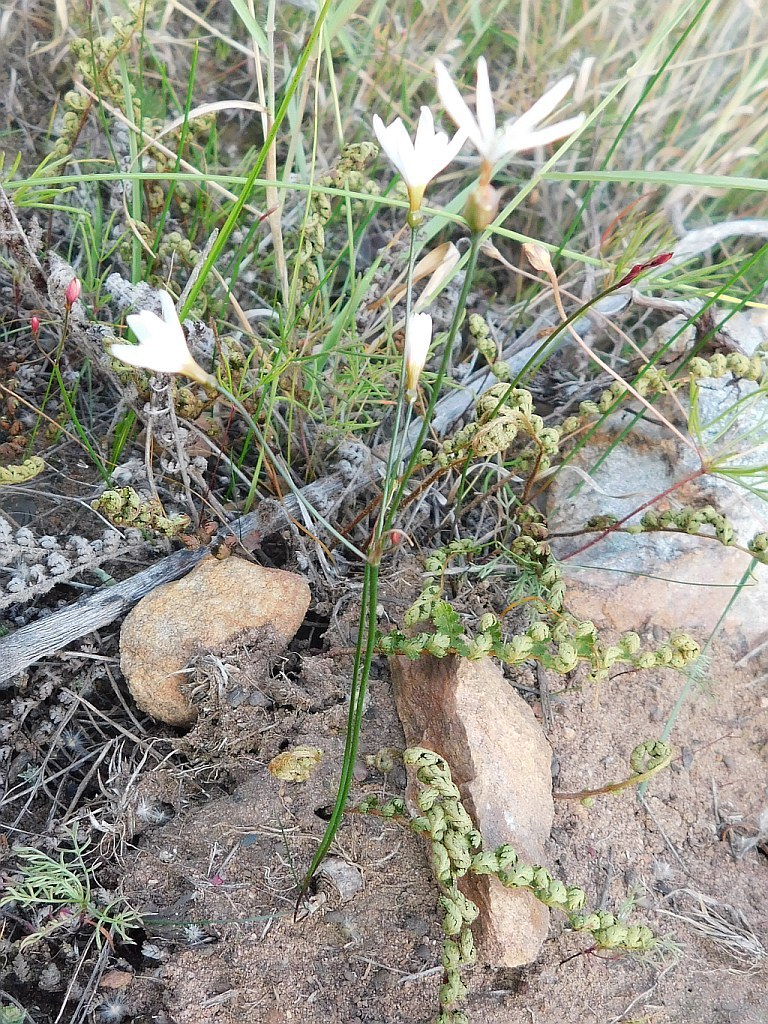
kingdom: Plantae
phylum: Tracheophyta
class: Liliopsida
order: Asparagales
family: Amaryllidaceae
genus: Strumaria
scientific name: Strumaria spiralis
